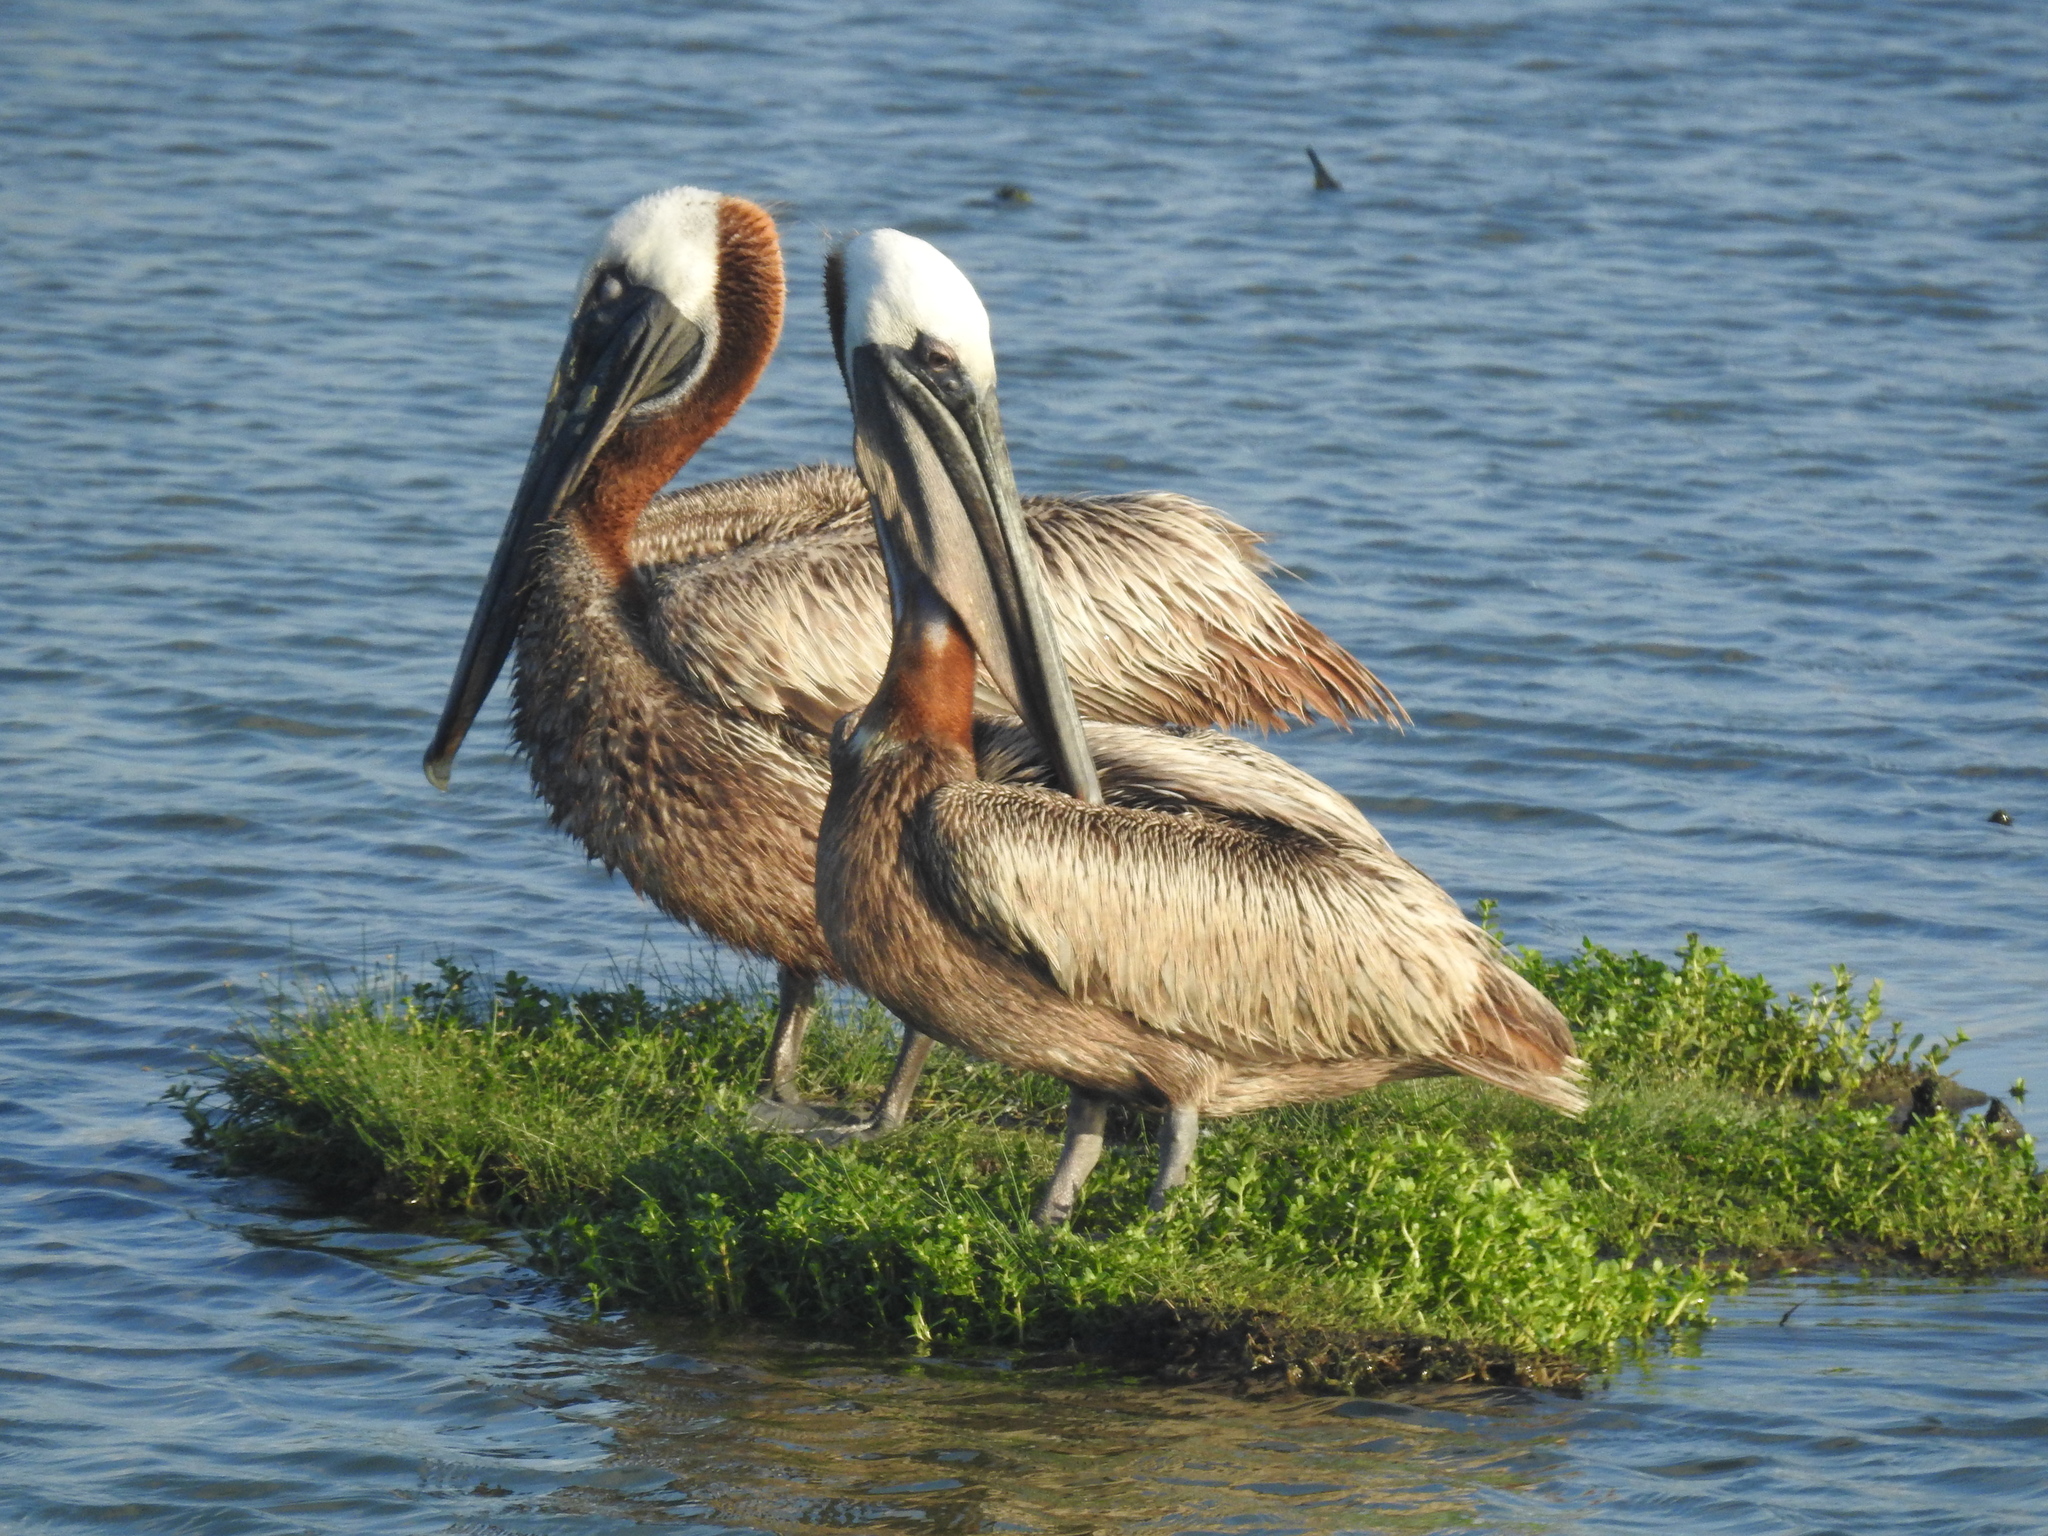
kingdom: Animalia
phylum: Chordata
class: Aves
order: Pelecaniformes
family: Pelecanidae
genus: Pelecanus
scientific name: Pelecanus occidentalis
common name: Brown pelican
